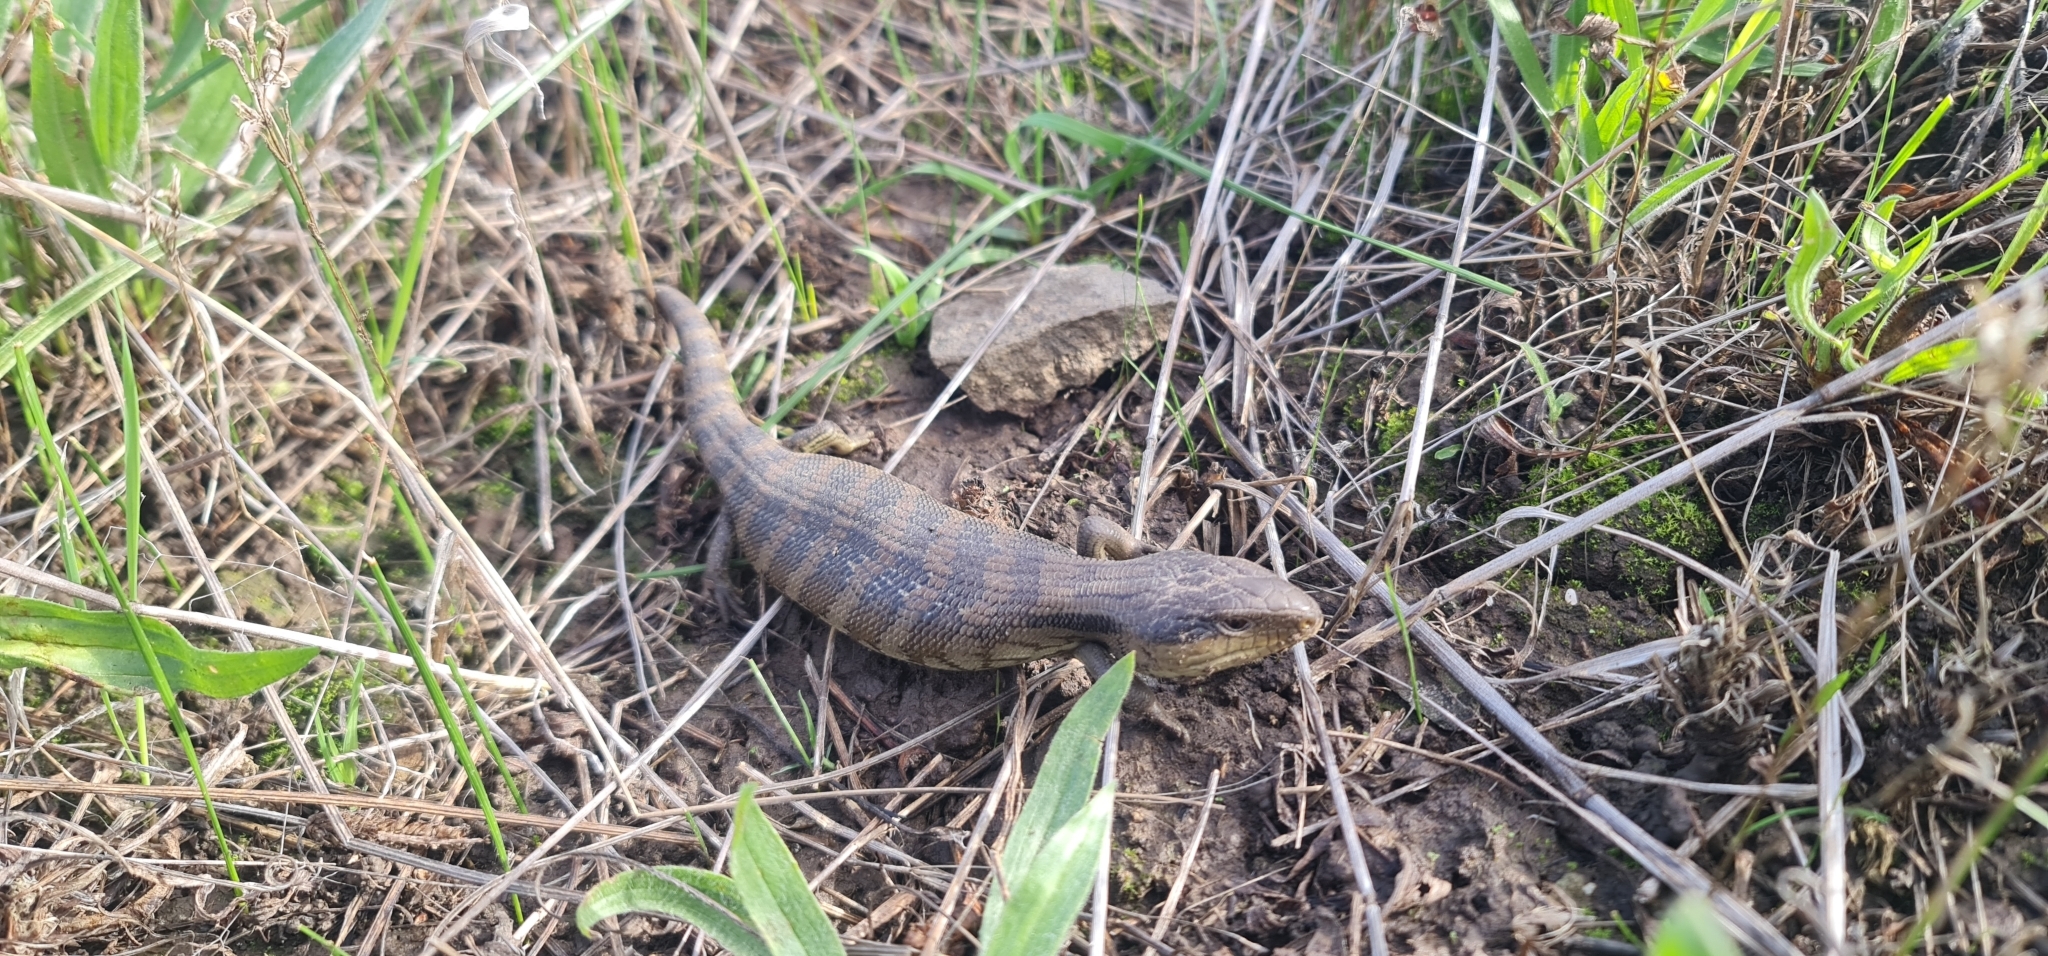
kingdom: Animalia
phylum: Chordata
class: Squamata
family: Scincidae
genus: Tiliqua
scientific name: Tiliqua scincoides
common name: Common bluetongue
